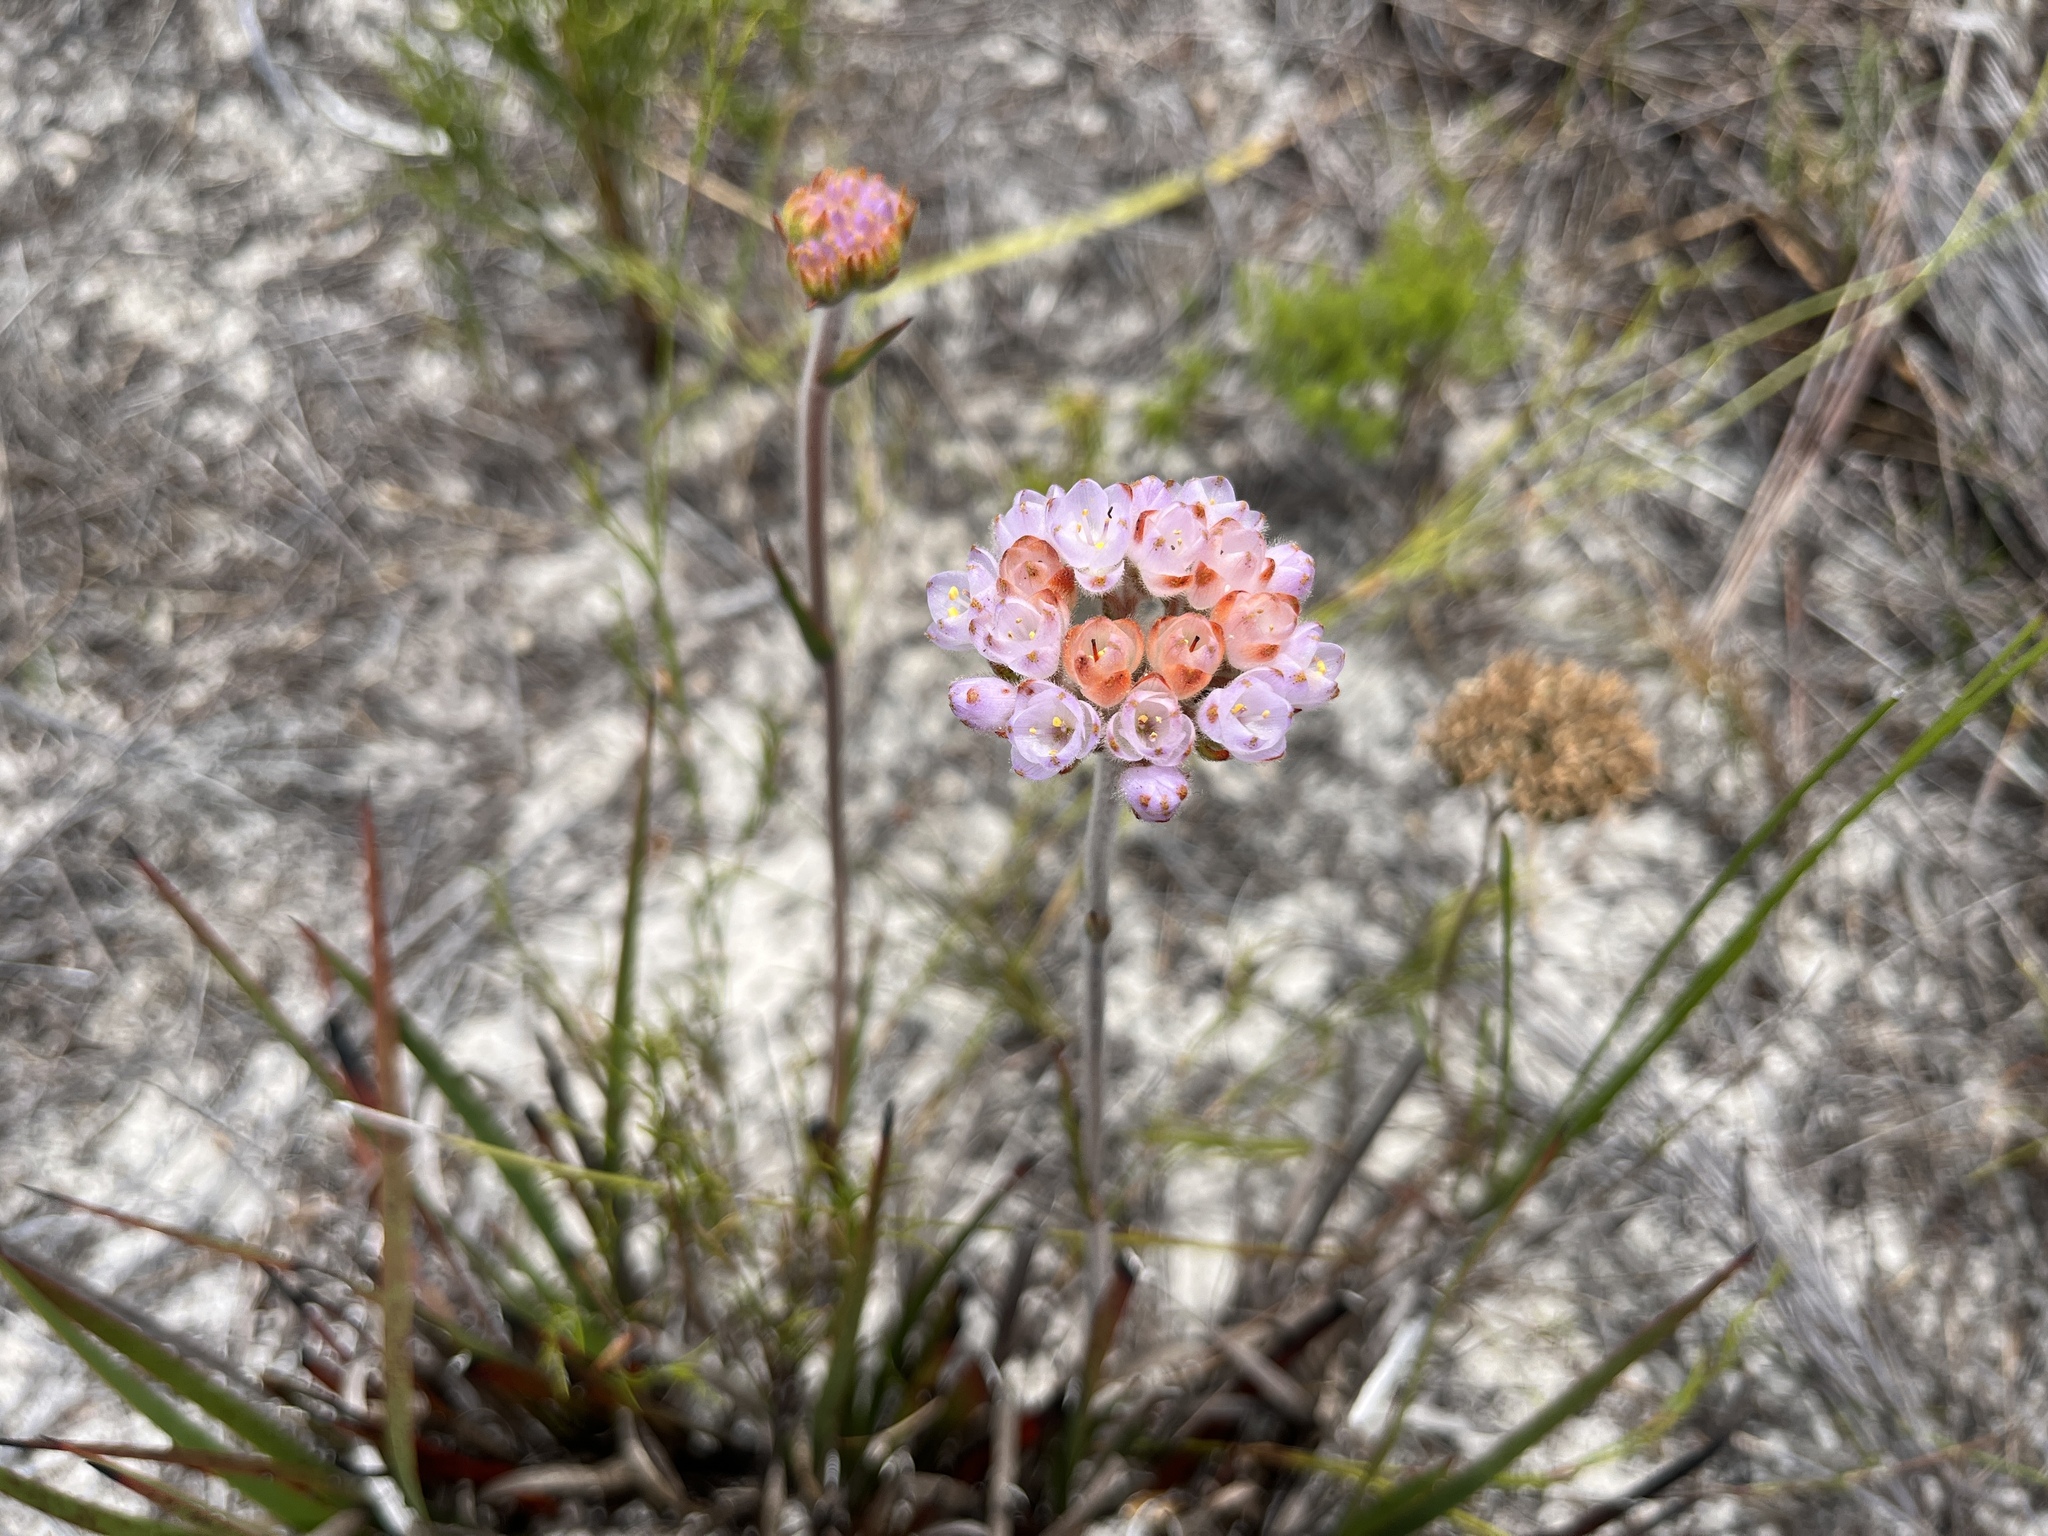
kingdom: Plantae
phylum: Tracheophyta
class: Liliopsida
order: Commelinales
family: Haemodoraceae
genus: Dilatris
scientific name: Dilatris pillansii
